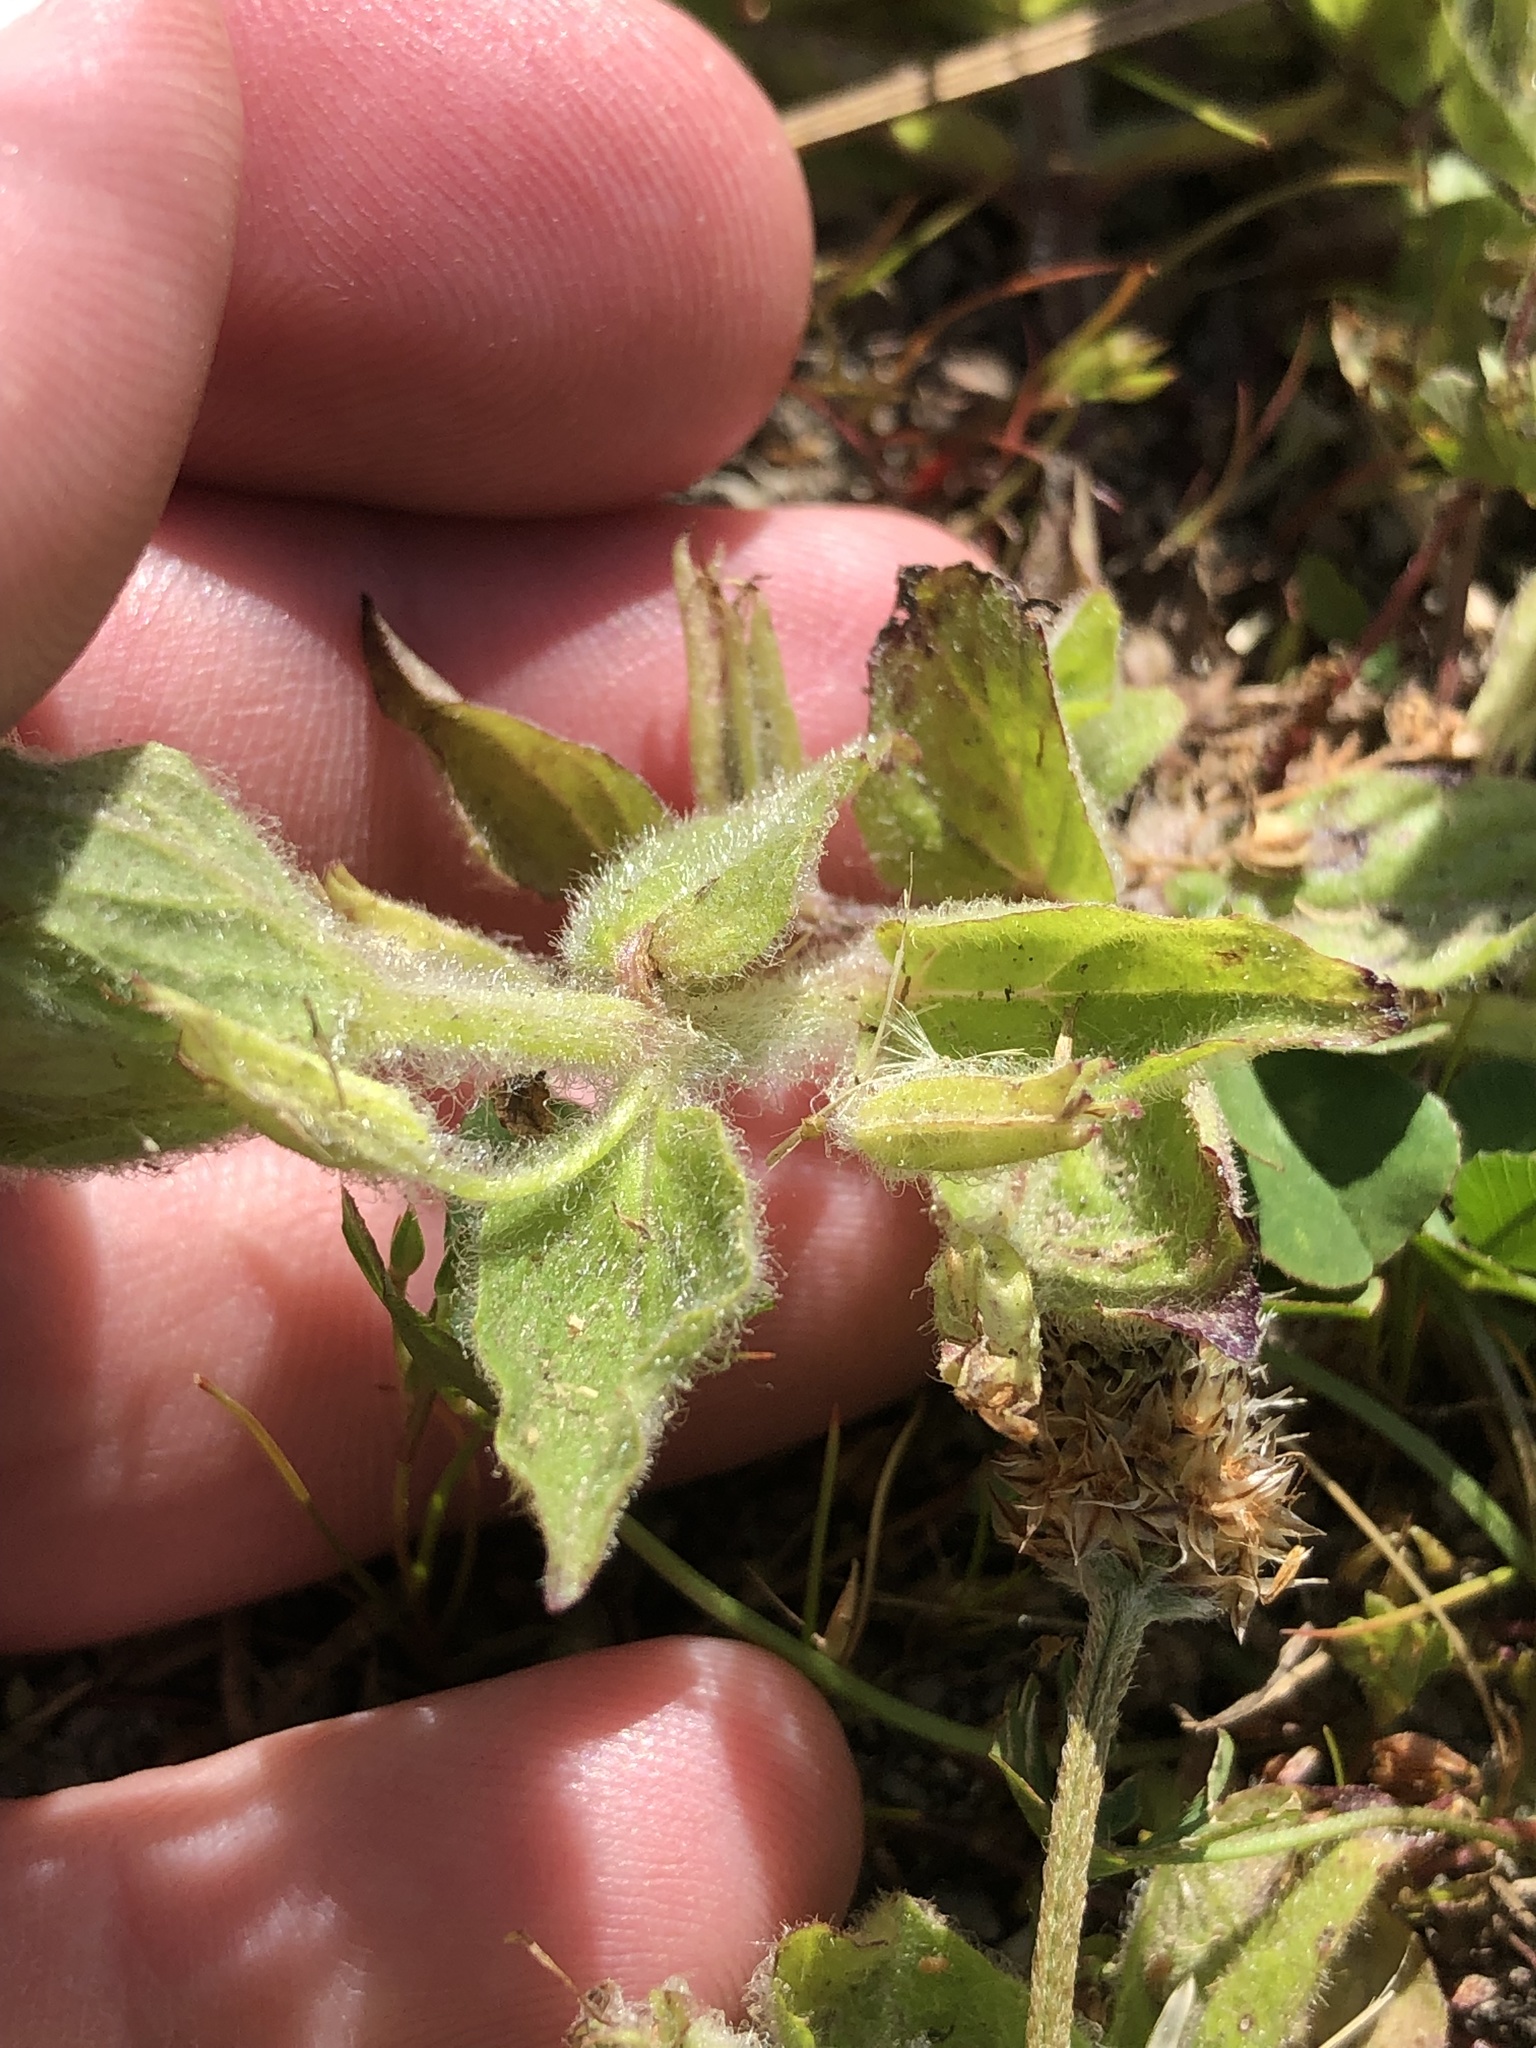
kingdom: Plantae
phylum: Tracheophyta
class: Magnoliopsida
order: Lamiales
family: Phrymaceae
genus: Erythranthe
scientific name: Erythranthe moschata
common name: Muskflower
